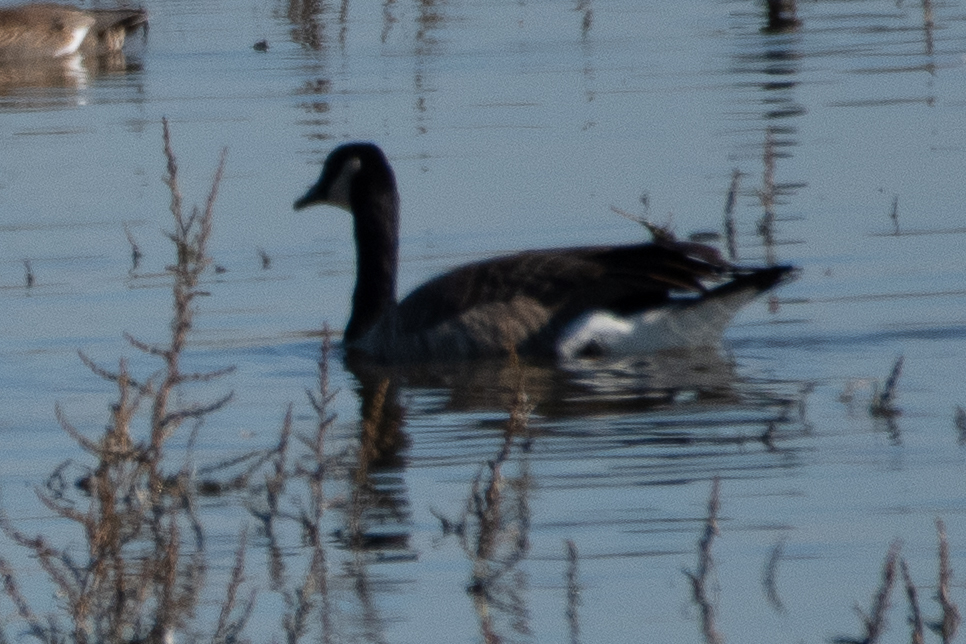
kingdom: Animalia
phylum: Chordata
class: Aves
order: Anseriformes
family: Anatidae
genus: Branta
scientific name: Branta canadensis
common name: Canada goose
